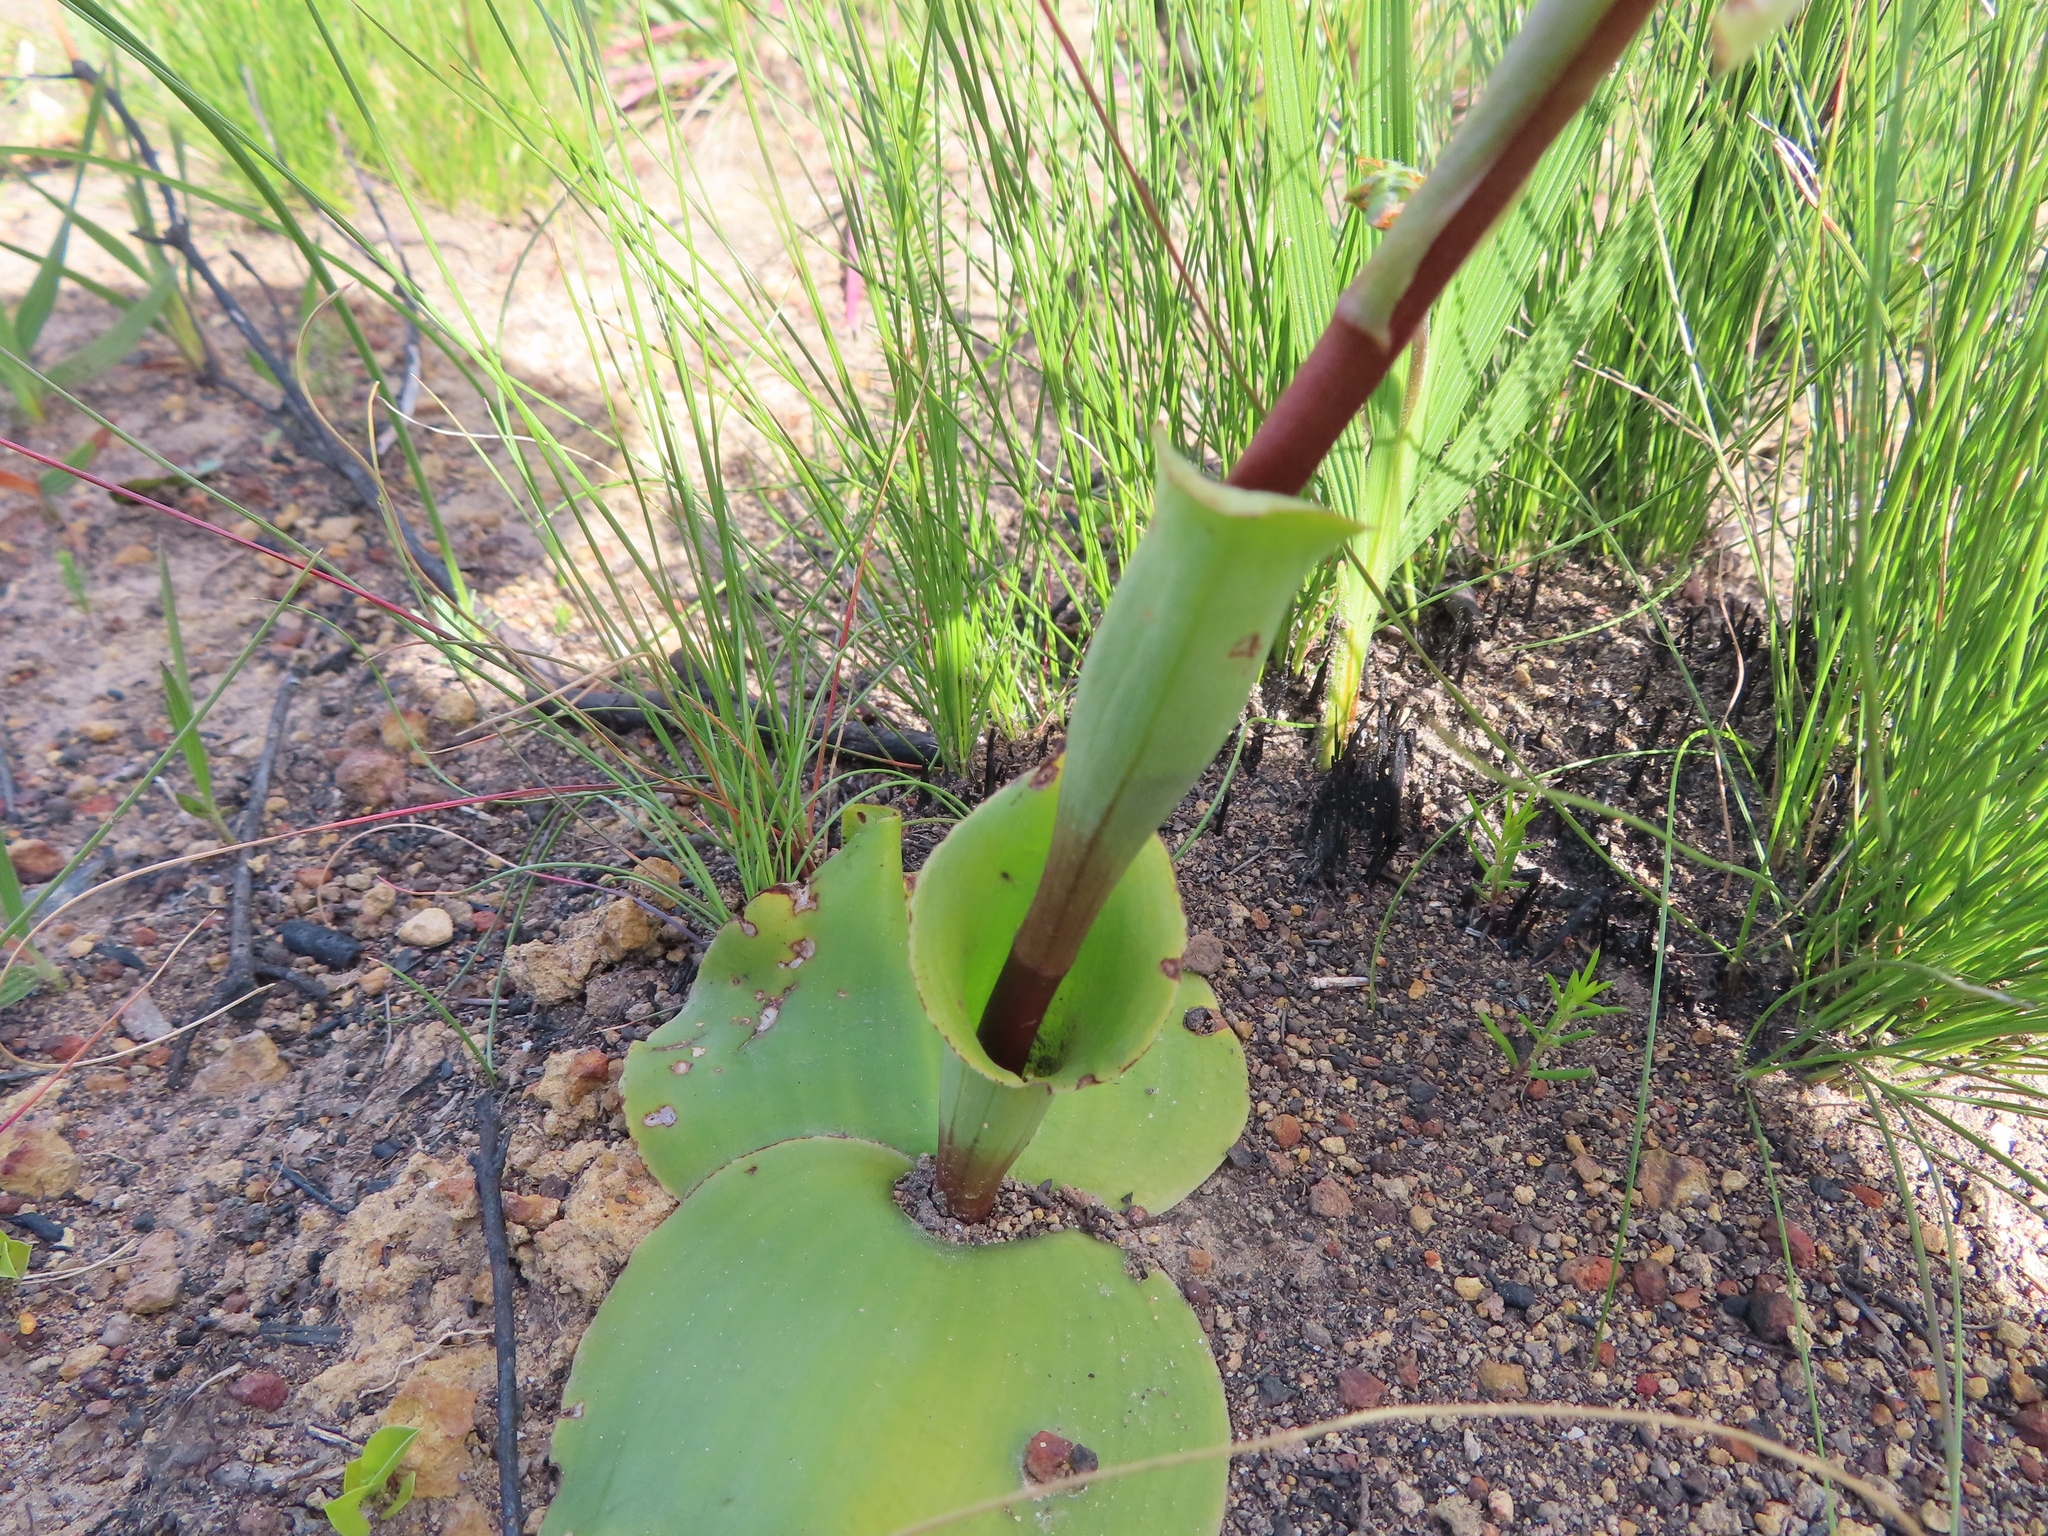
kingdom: Plantae
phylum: Tracheophyta
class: Liliopsida
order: Asparagales
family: Orchidaceae
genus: Satyrium
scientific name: Satyrium bicorne
